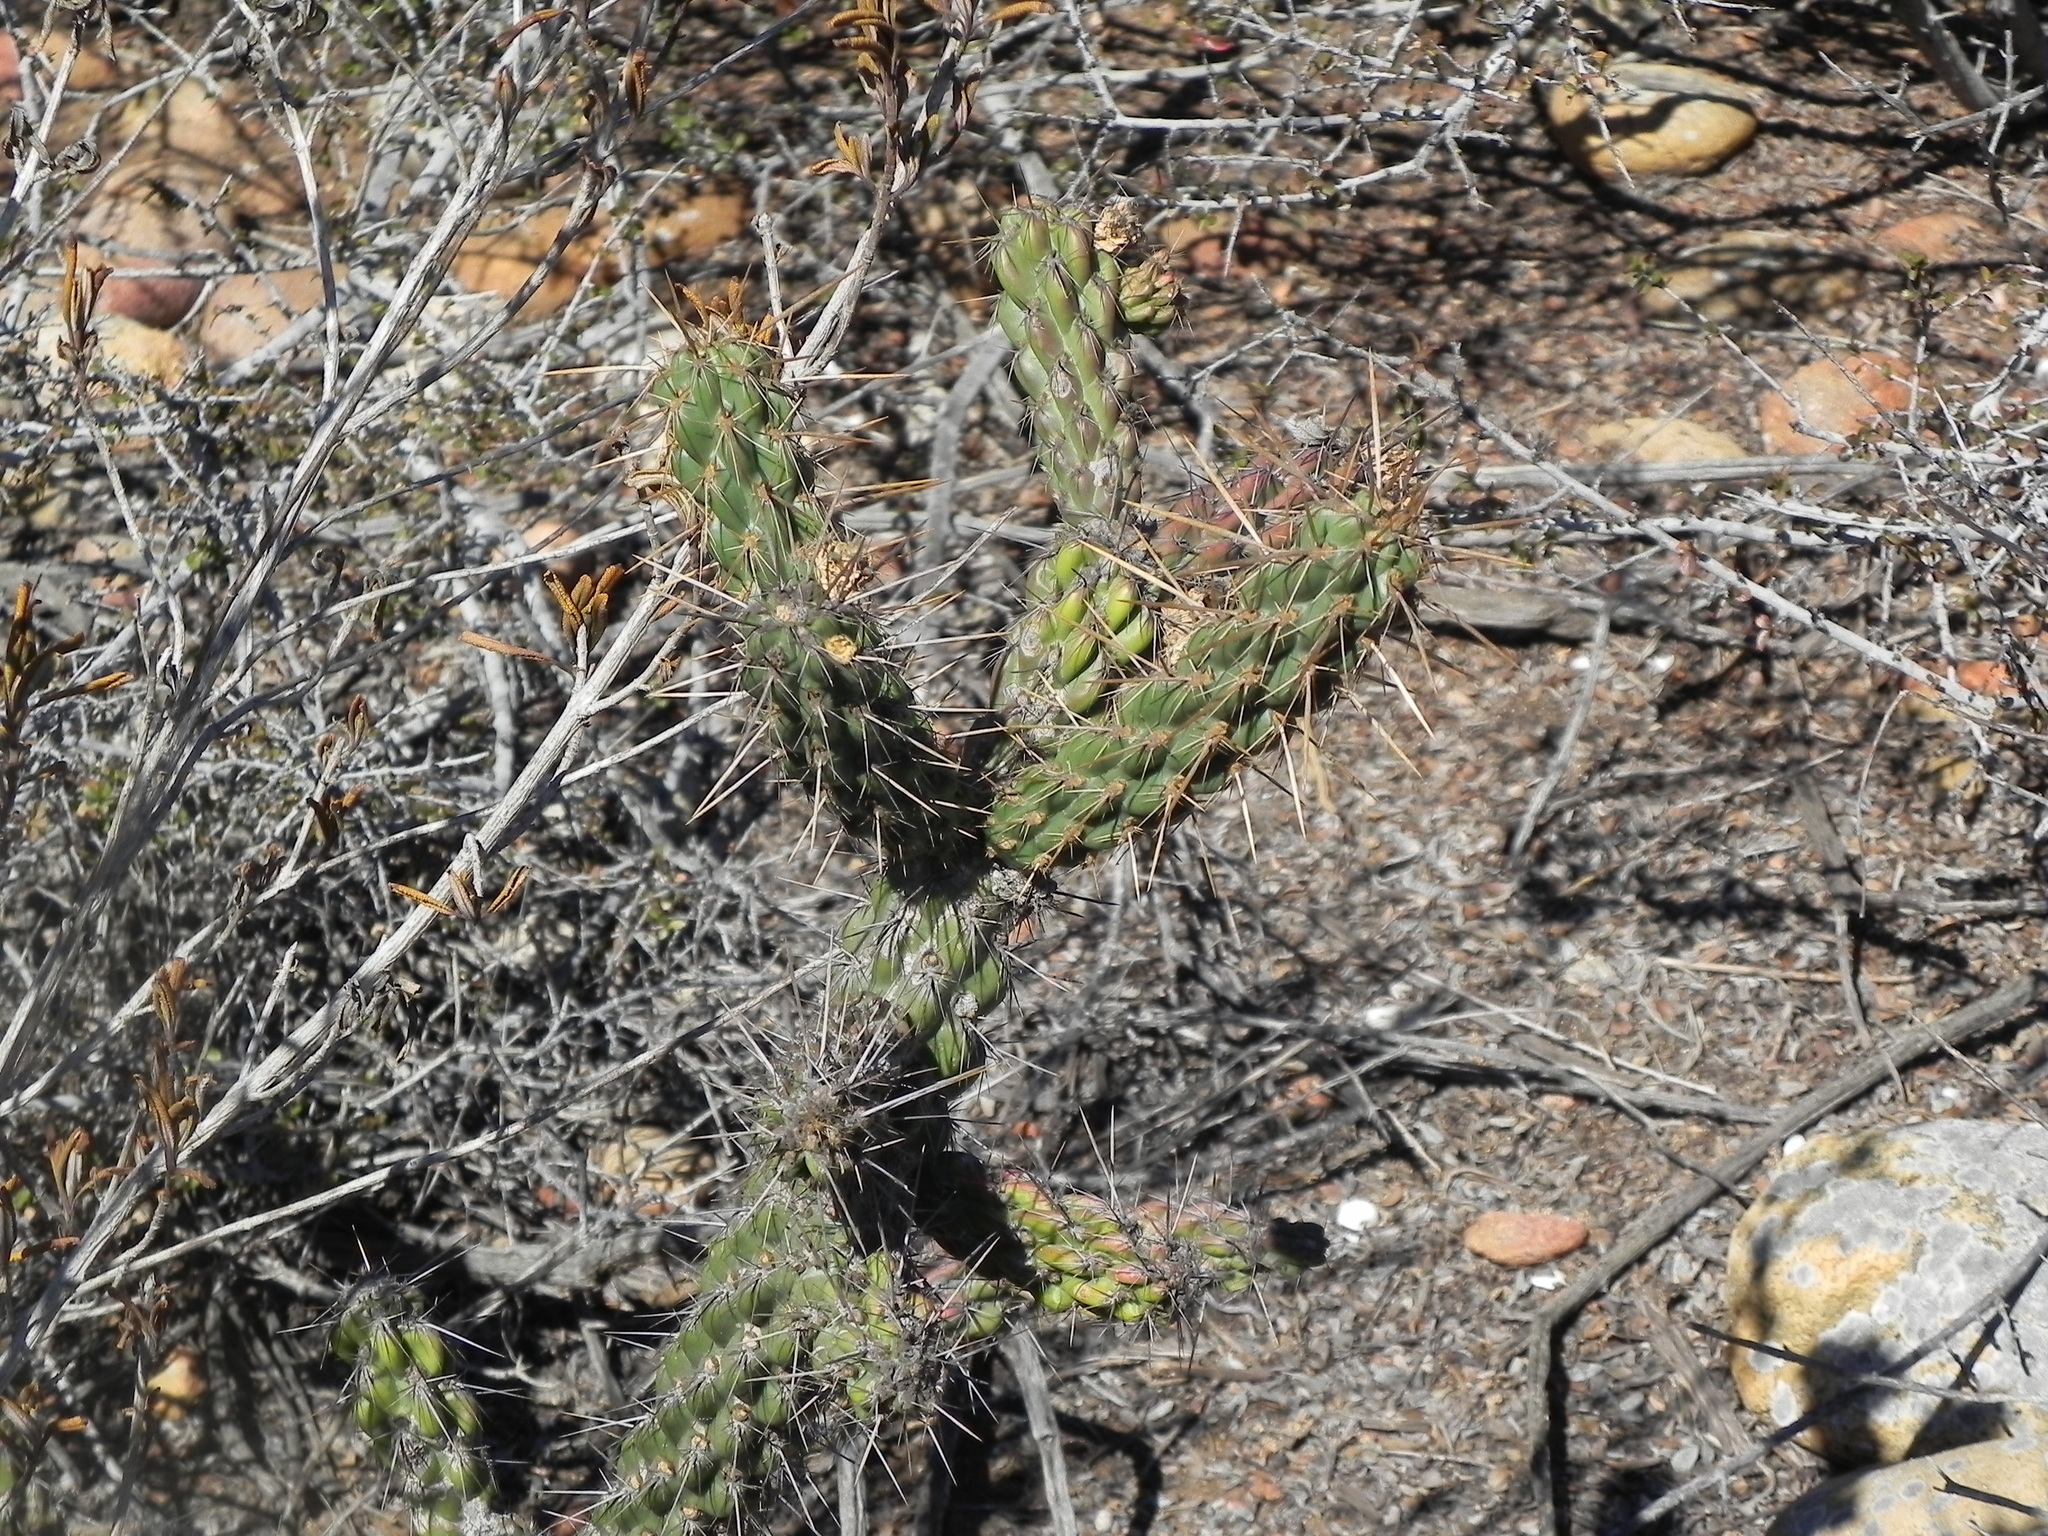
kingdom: Plantae
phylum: Tracheophyta
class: Magnoliopsida
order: Caryophyllales
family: Cactaceae
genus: Cylindropuntia
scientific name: Cylindropuntia californica
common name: Snake cholla
